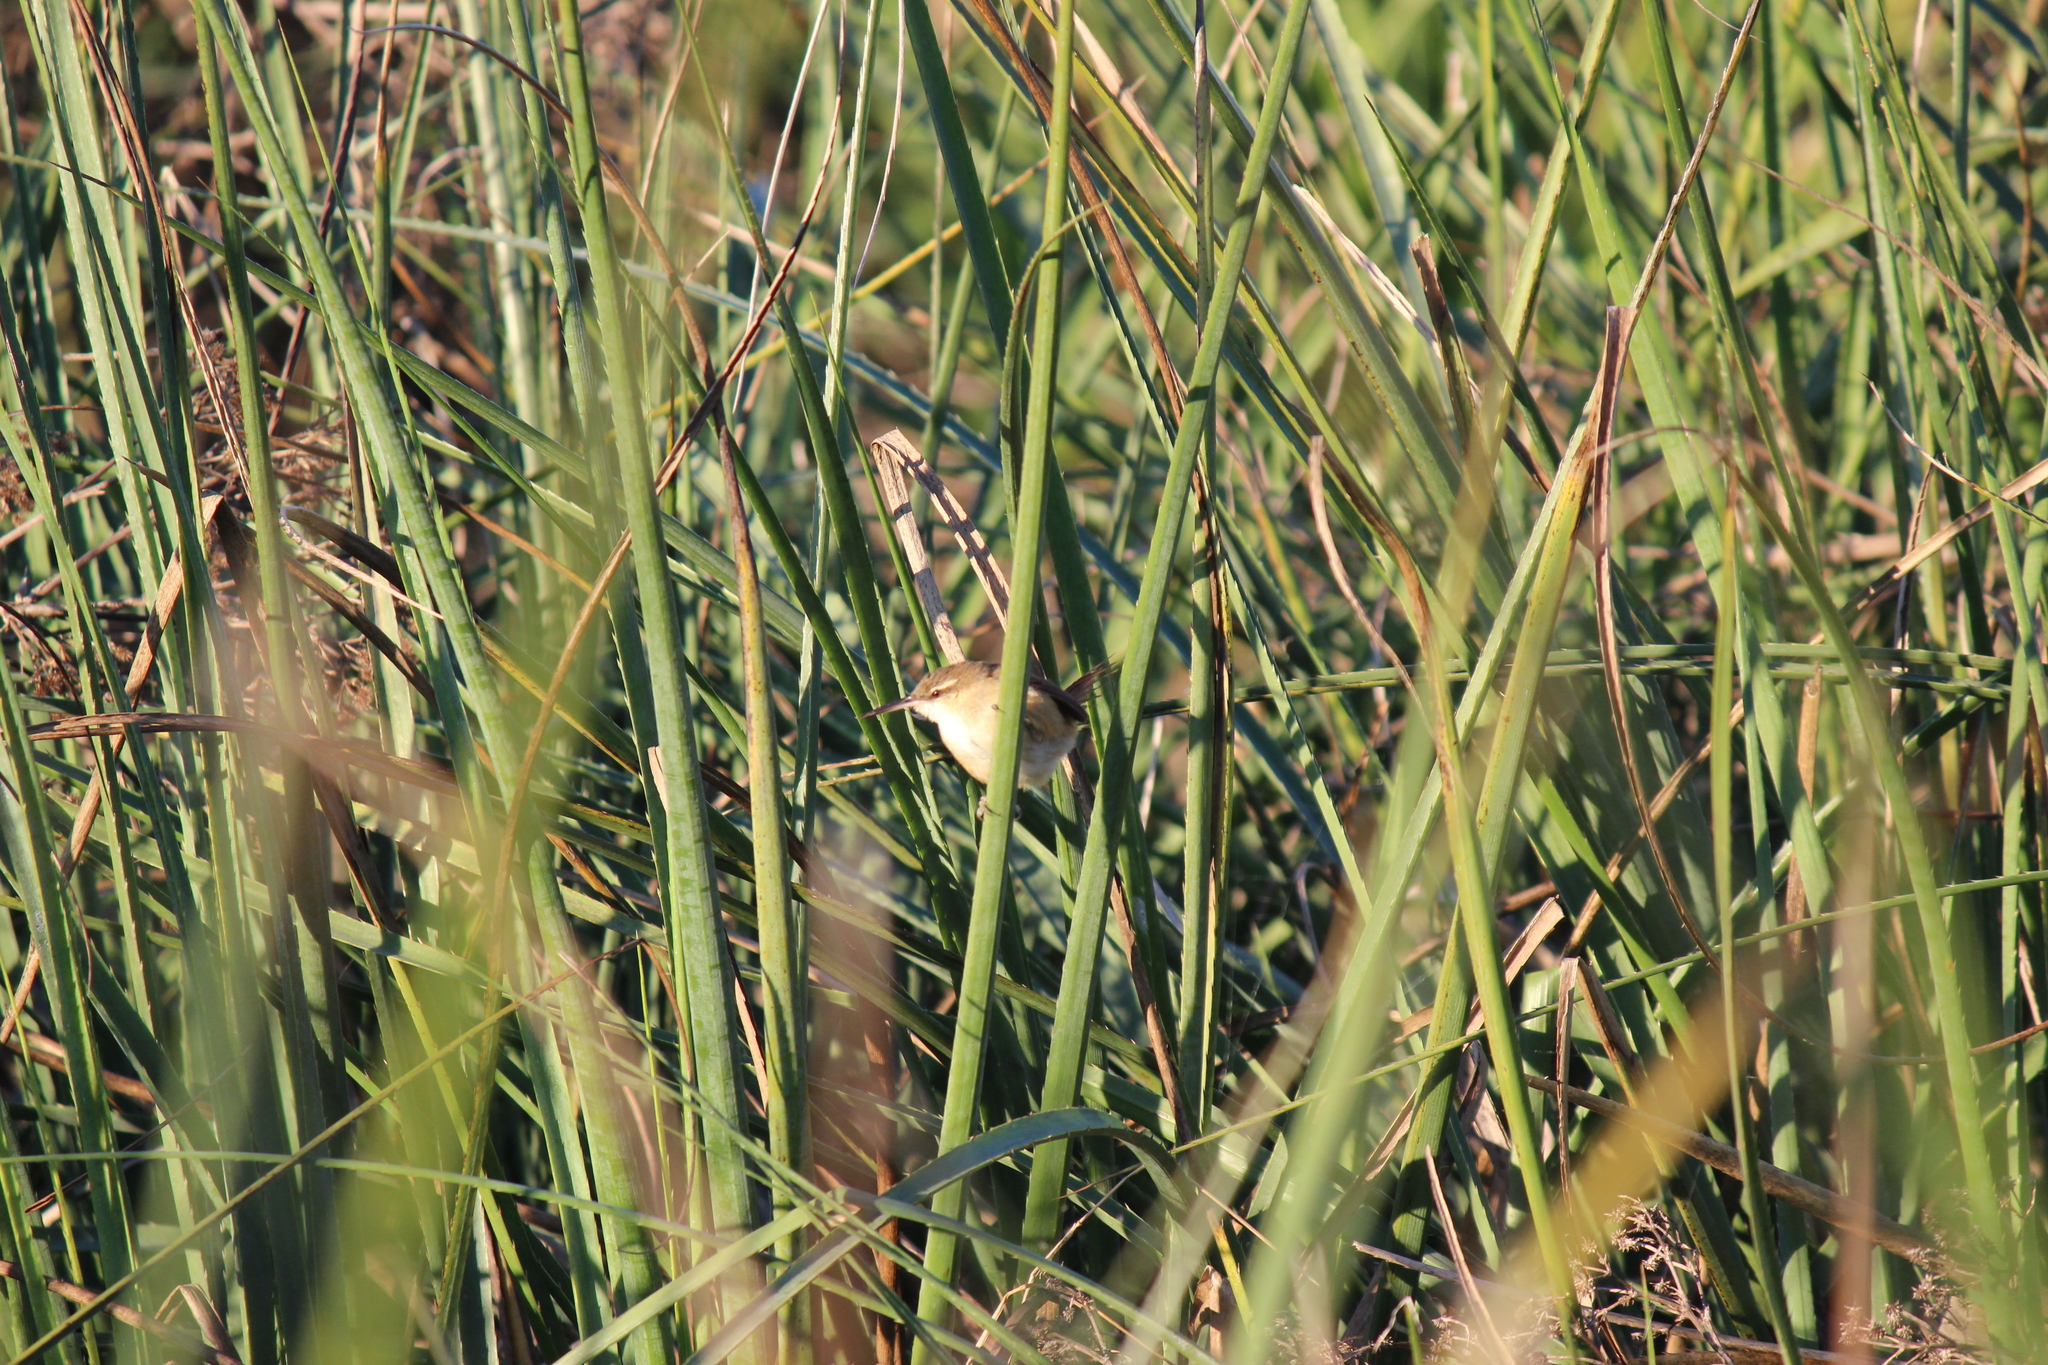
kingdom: Animalia
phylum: Chordata
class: Aves
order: Passeriformes
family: Furnariidae
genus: Limnornis
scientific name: Limnornis rectirostris
